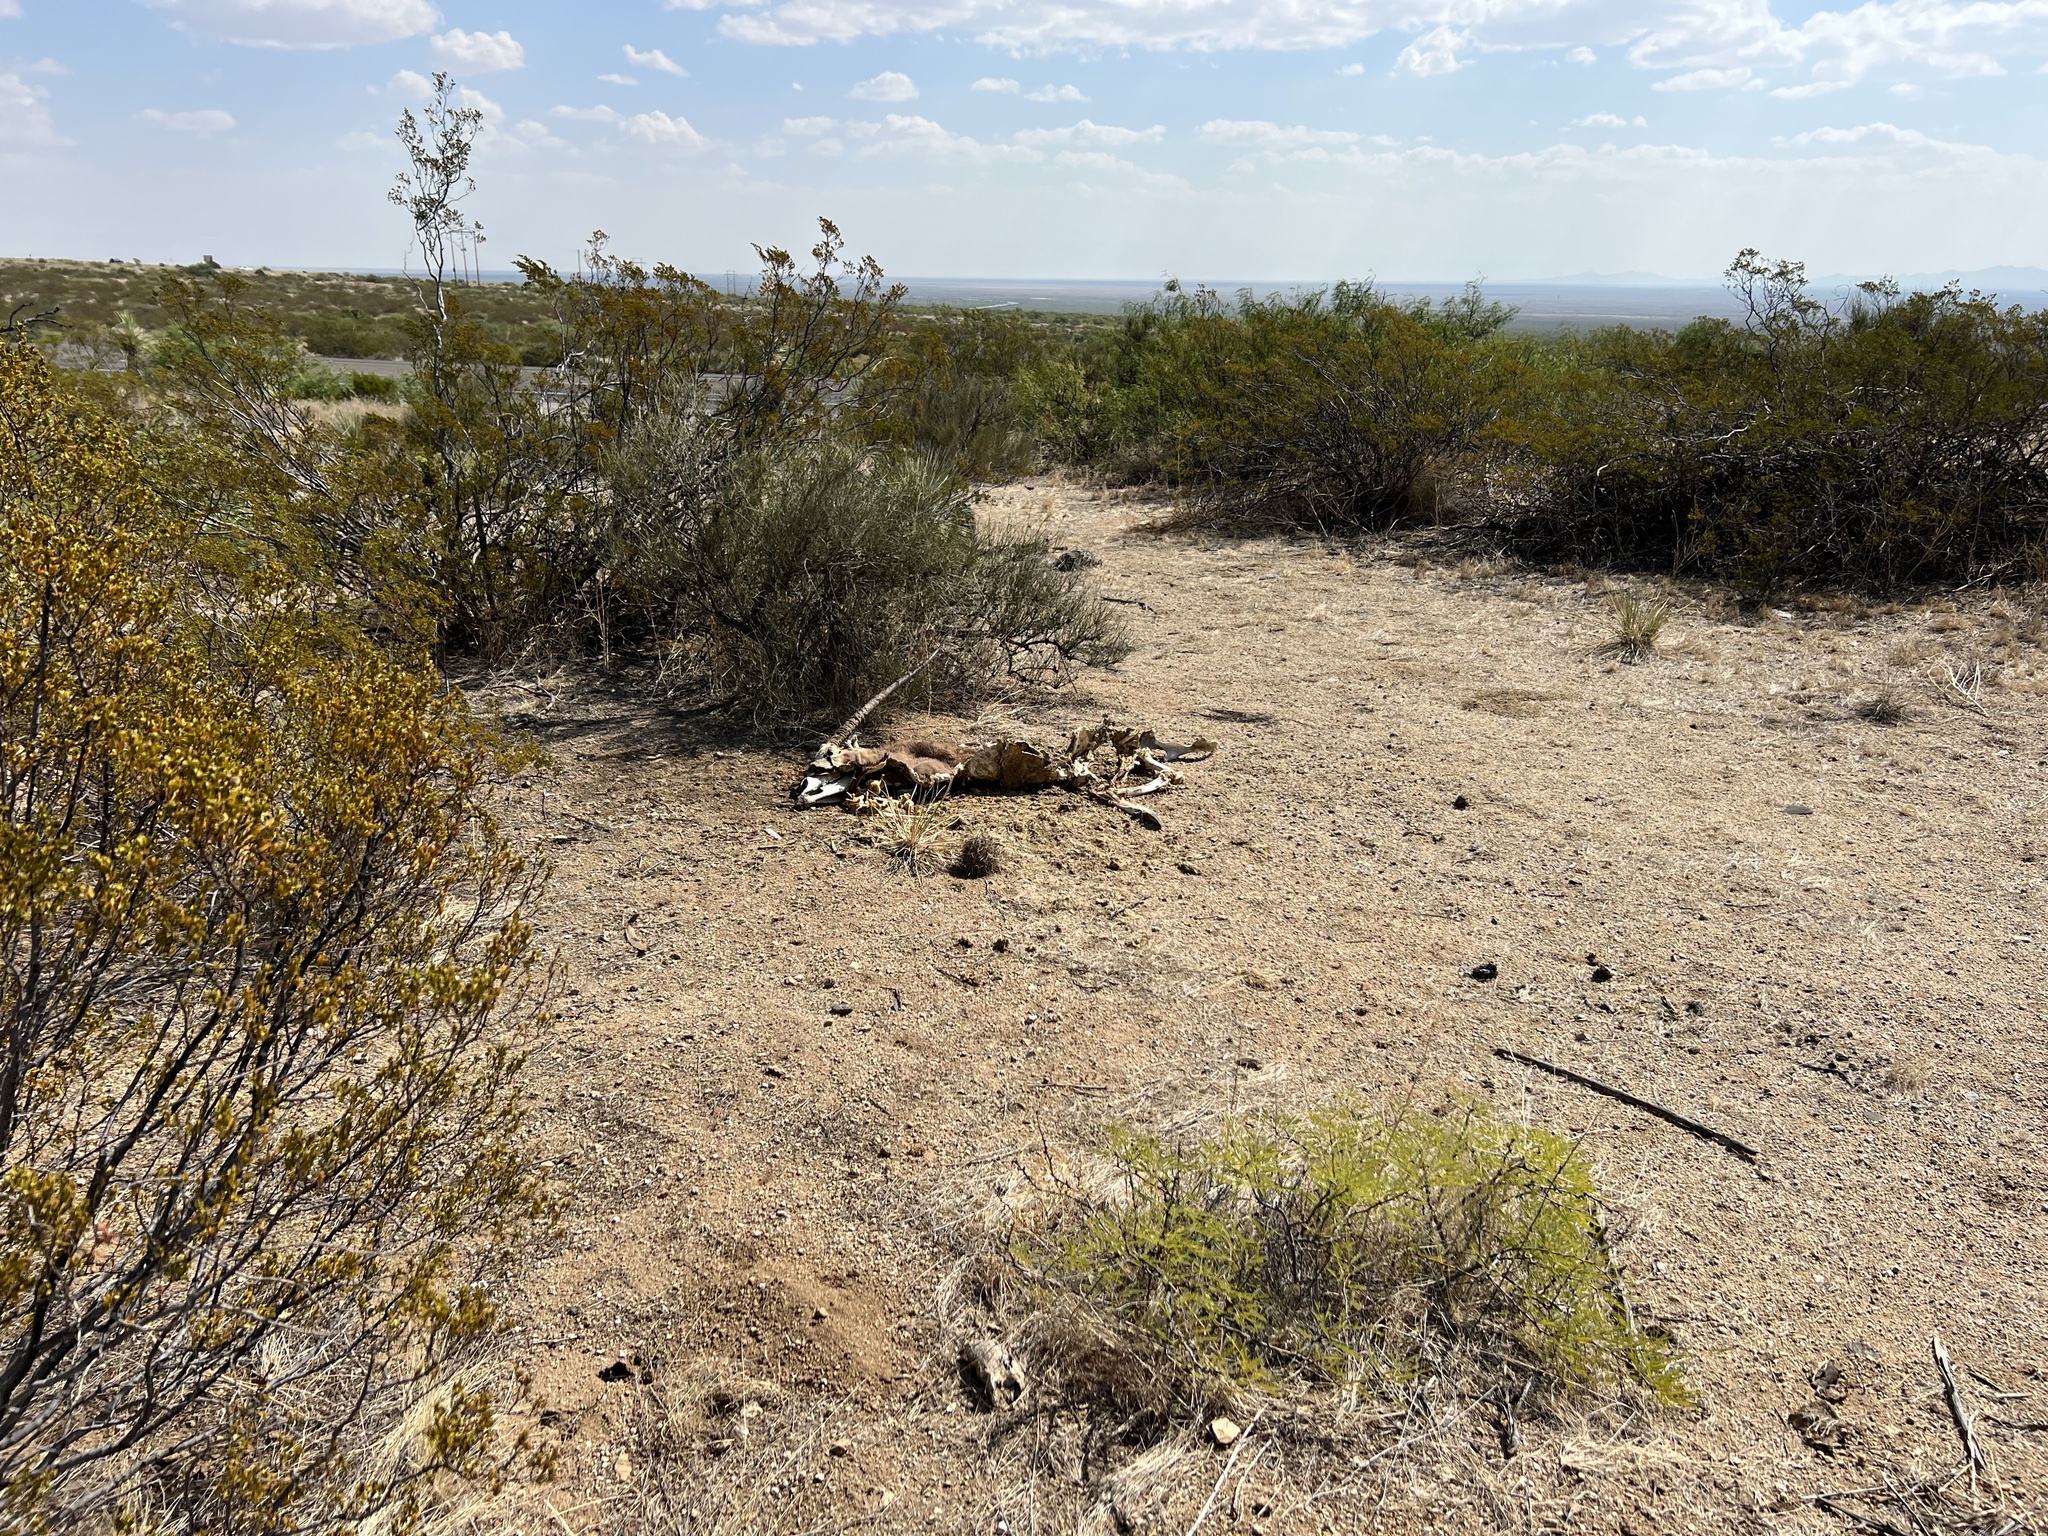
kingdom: Animalia
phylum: Chordata
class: Mammalia
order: Artiodactyla
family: Bovidae
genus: Oryx
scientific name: Oryx gazella
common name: Gemsbok
